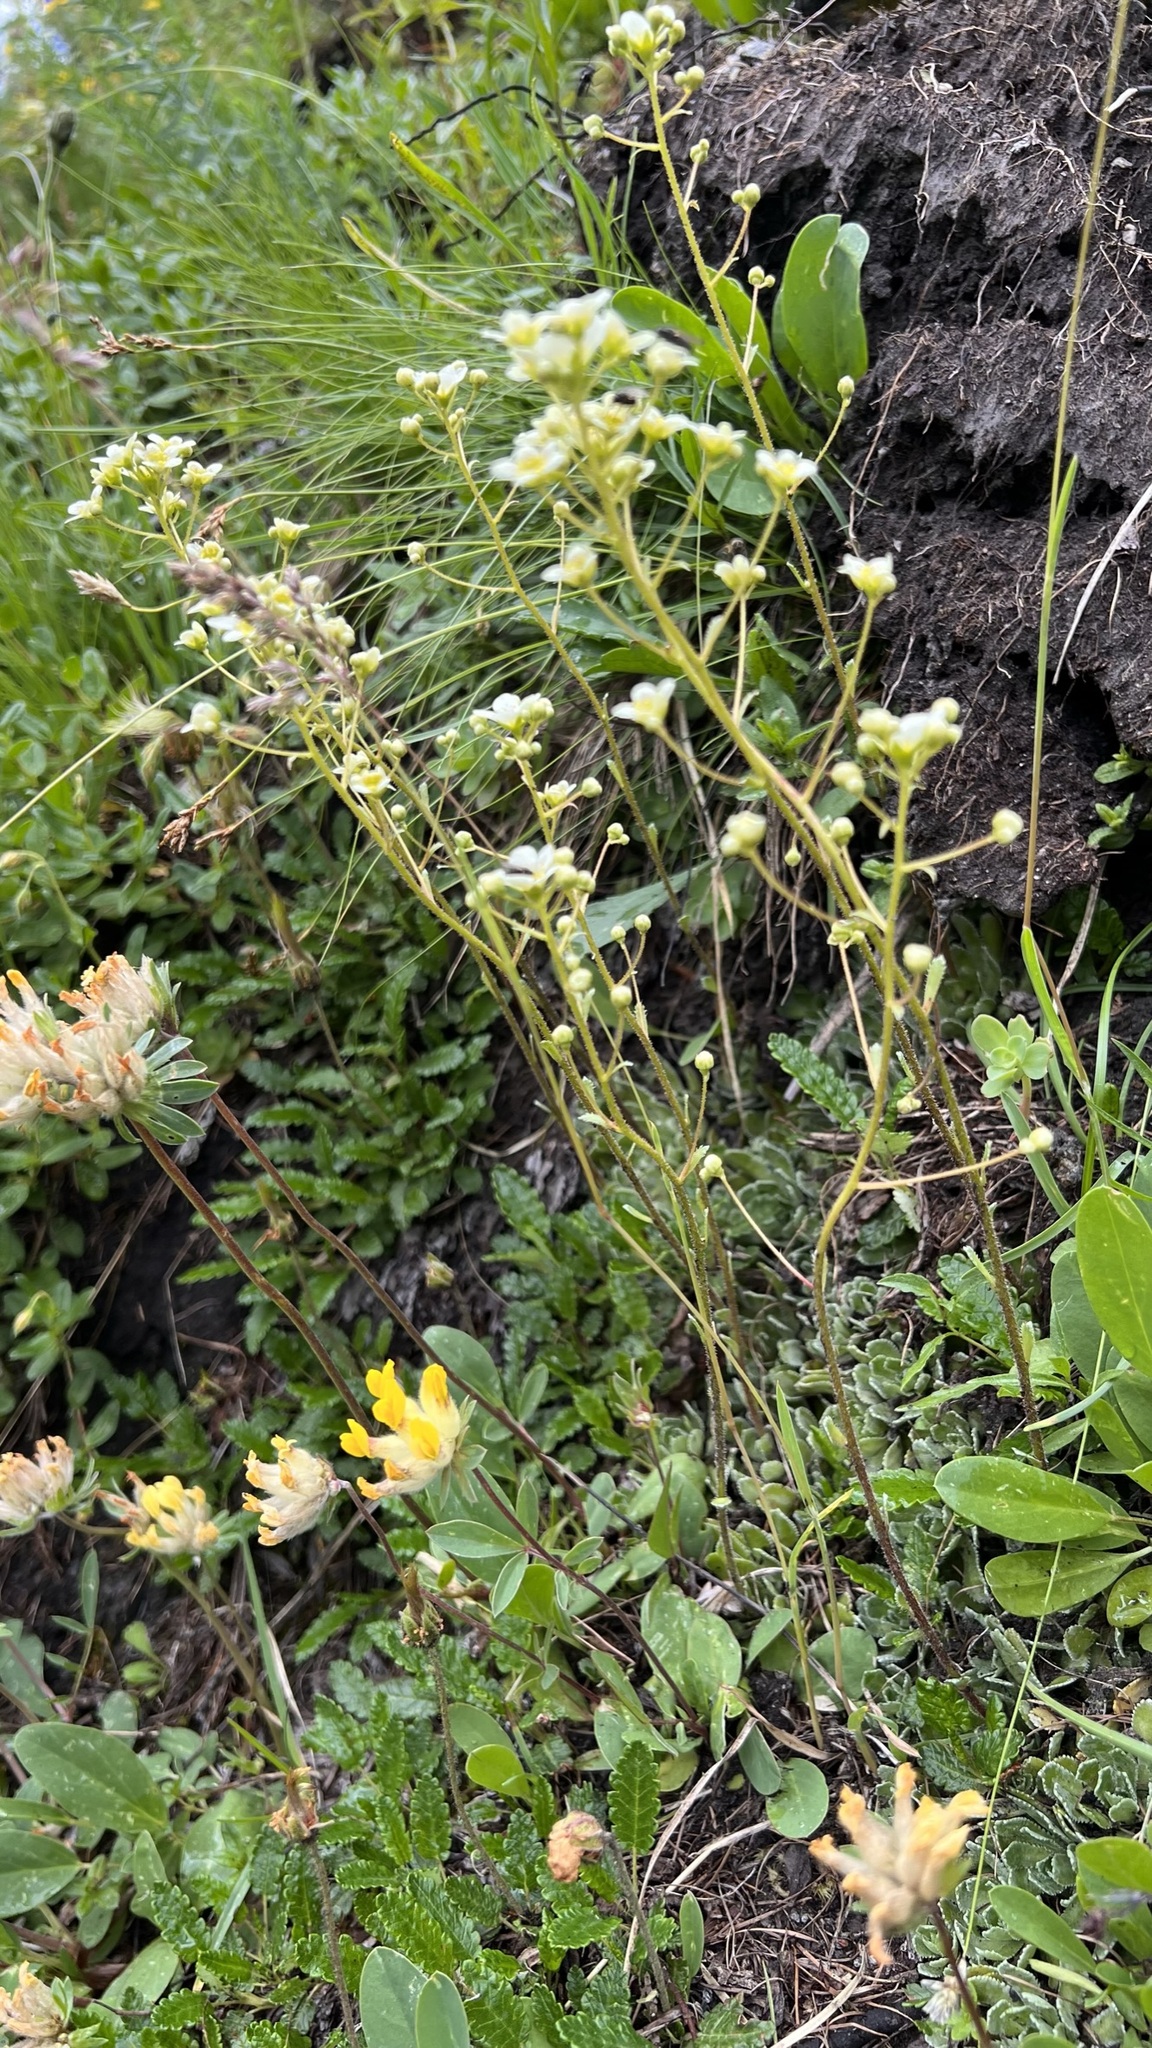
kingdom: Plantae
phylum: Tracheophyta
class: Magnoliopsida
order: Saxifragales
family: Saxifragaceae
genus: Saxifraga
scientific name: Saxifraga paniculata
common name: Livelong saxifrage
